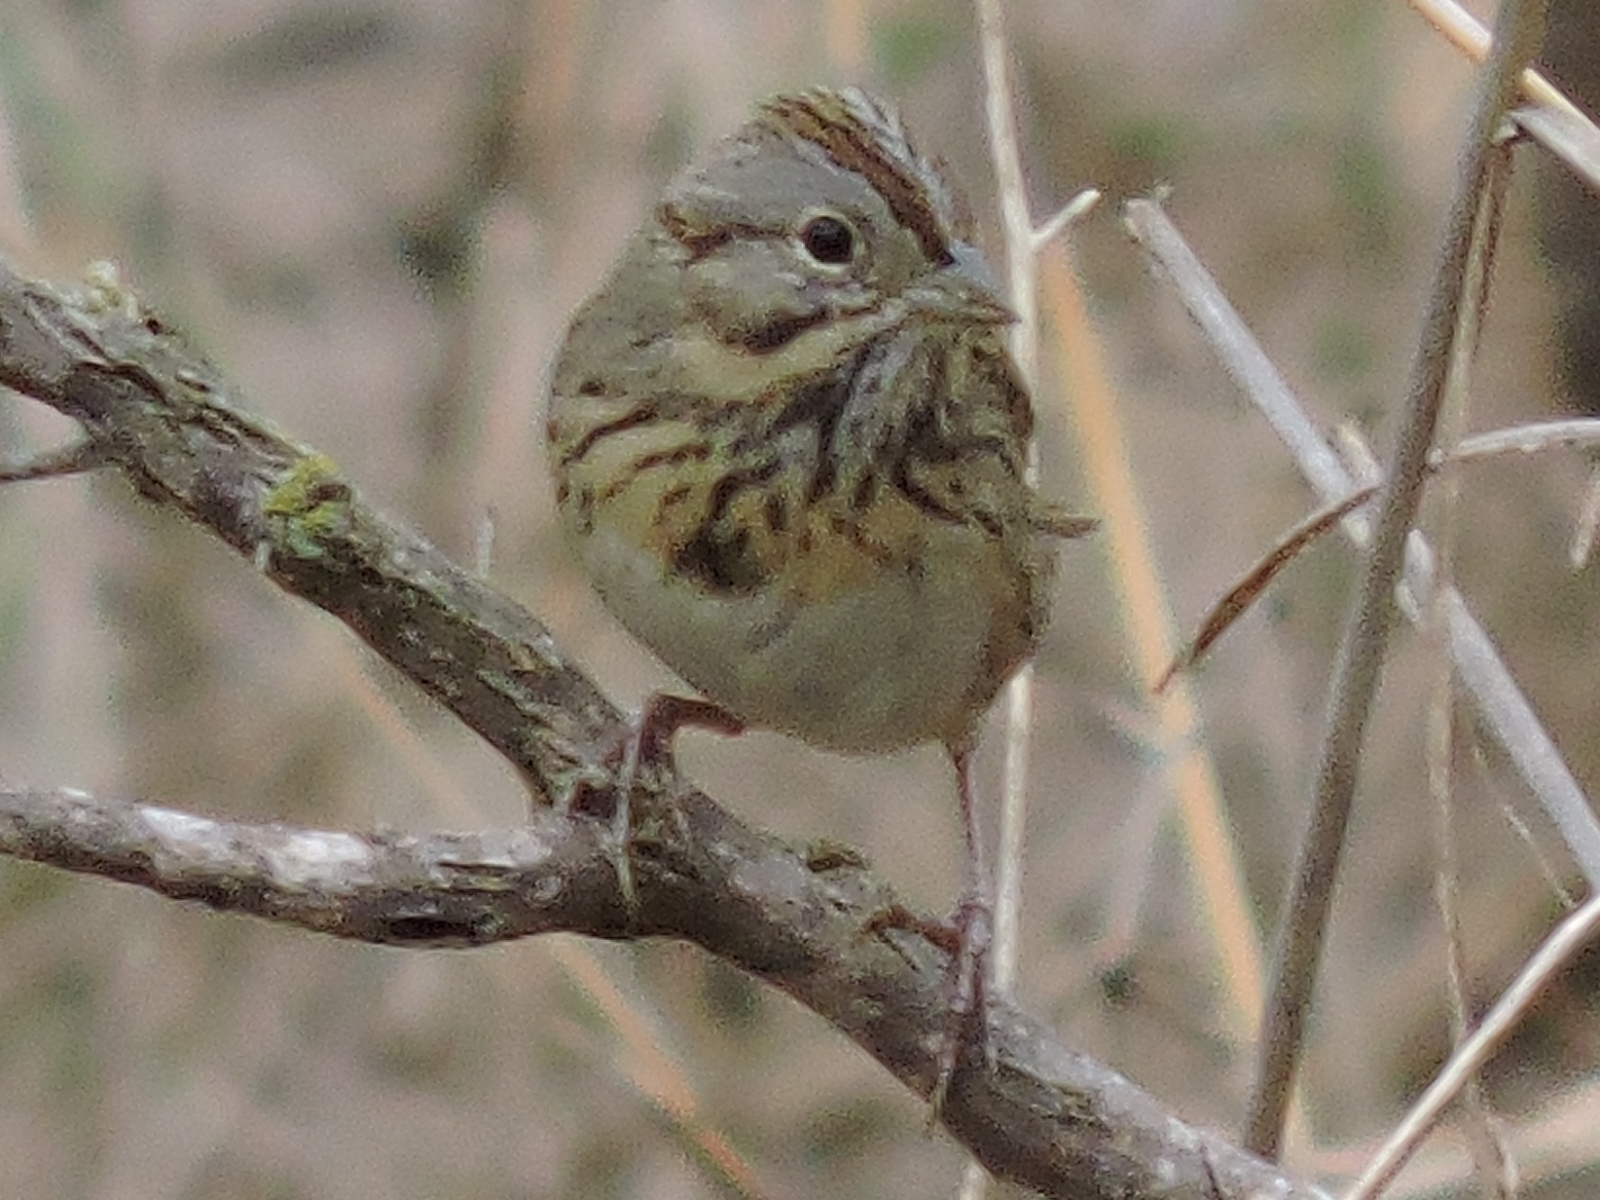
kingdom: Animalia
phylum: Chordata
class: Aves
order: Passeriformes
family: Passerellidae
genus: Melospiza
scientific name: Melospiza lincolnii
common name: Lincoln's sparrow
